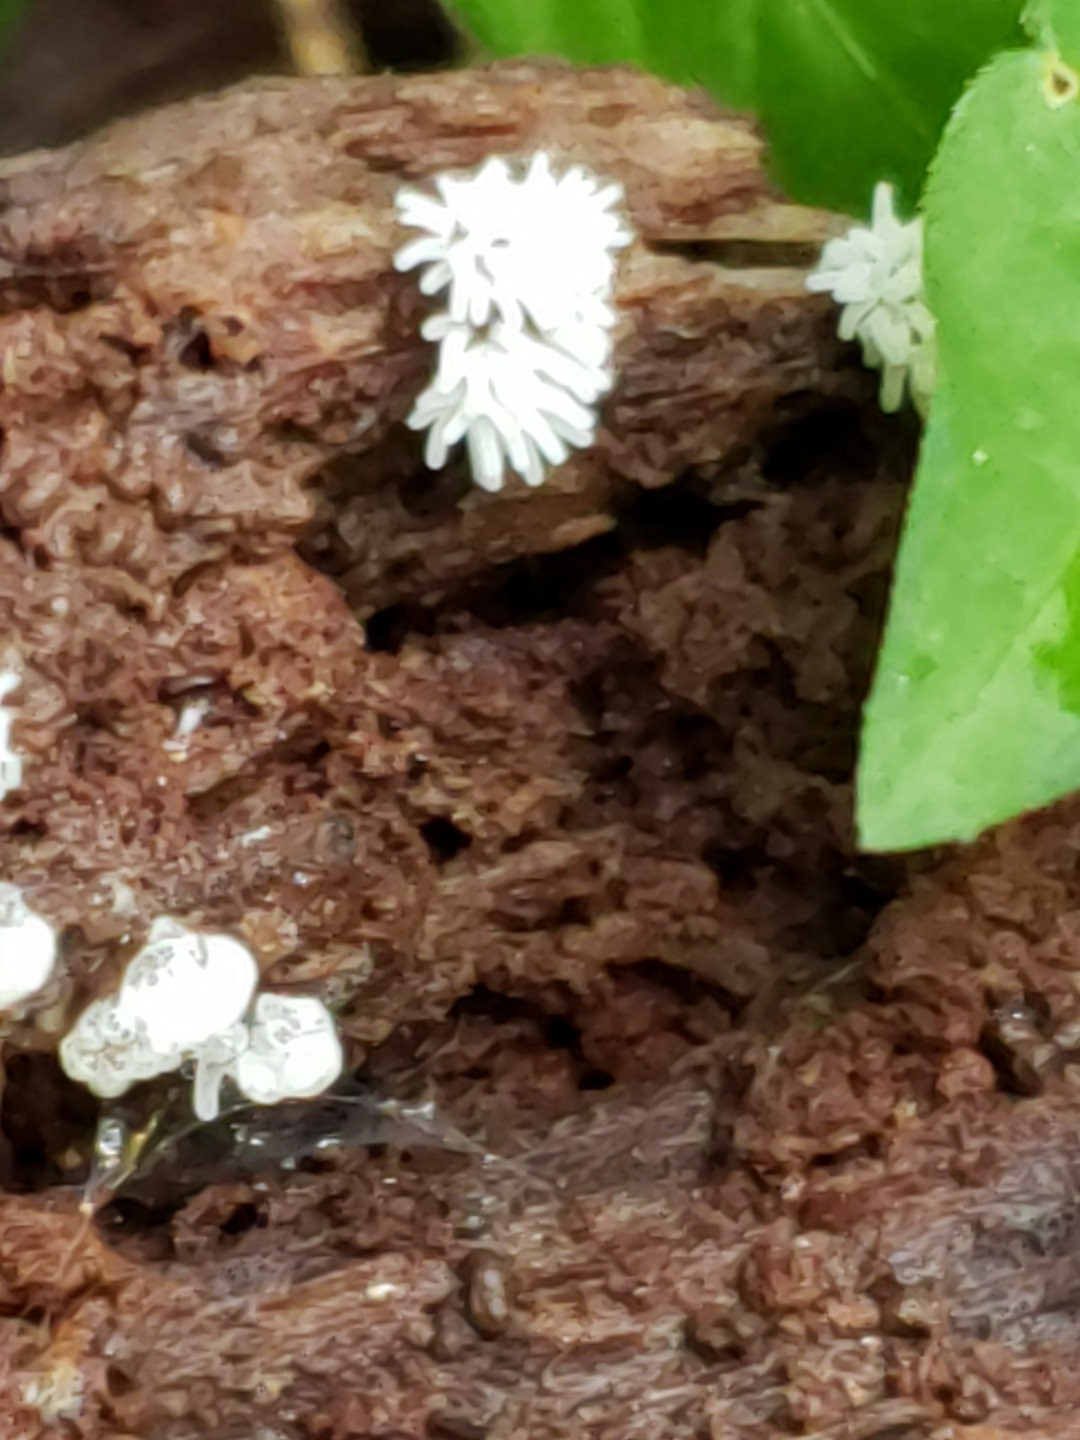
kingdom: Protozoa
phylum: Mycetozoa
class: Protosteliomycetes
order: Ceratiomyxales
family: Ceratiomyxaceae
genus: Ceratiomyxa
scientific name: Ceratiomyxa fruticulosa
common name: Honeycomb coral slime mold
